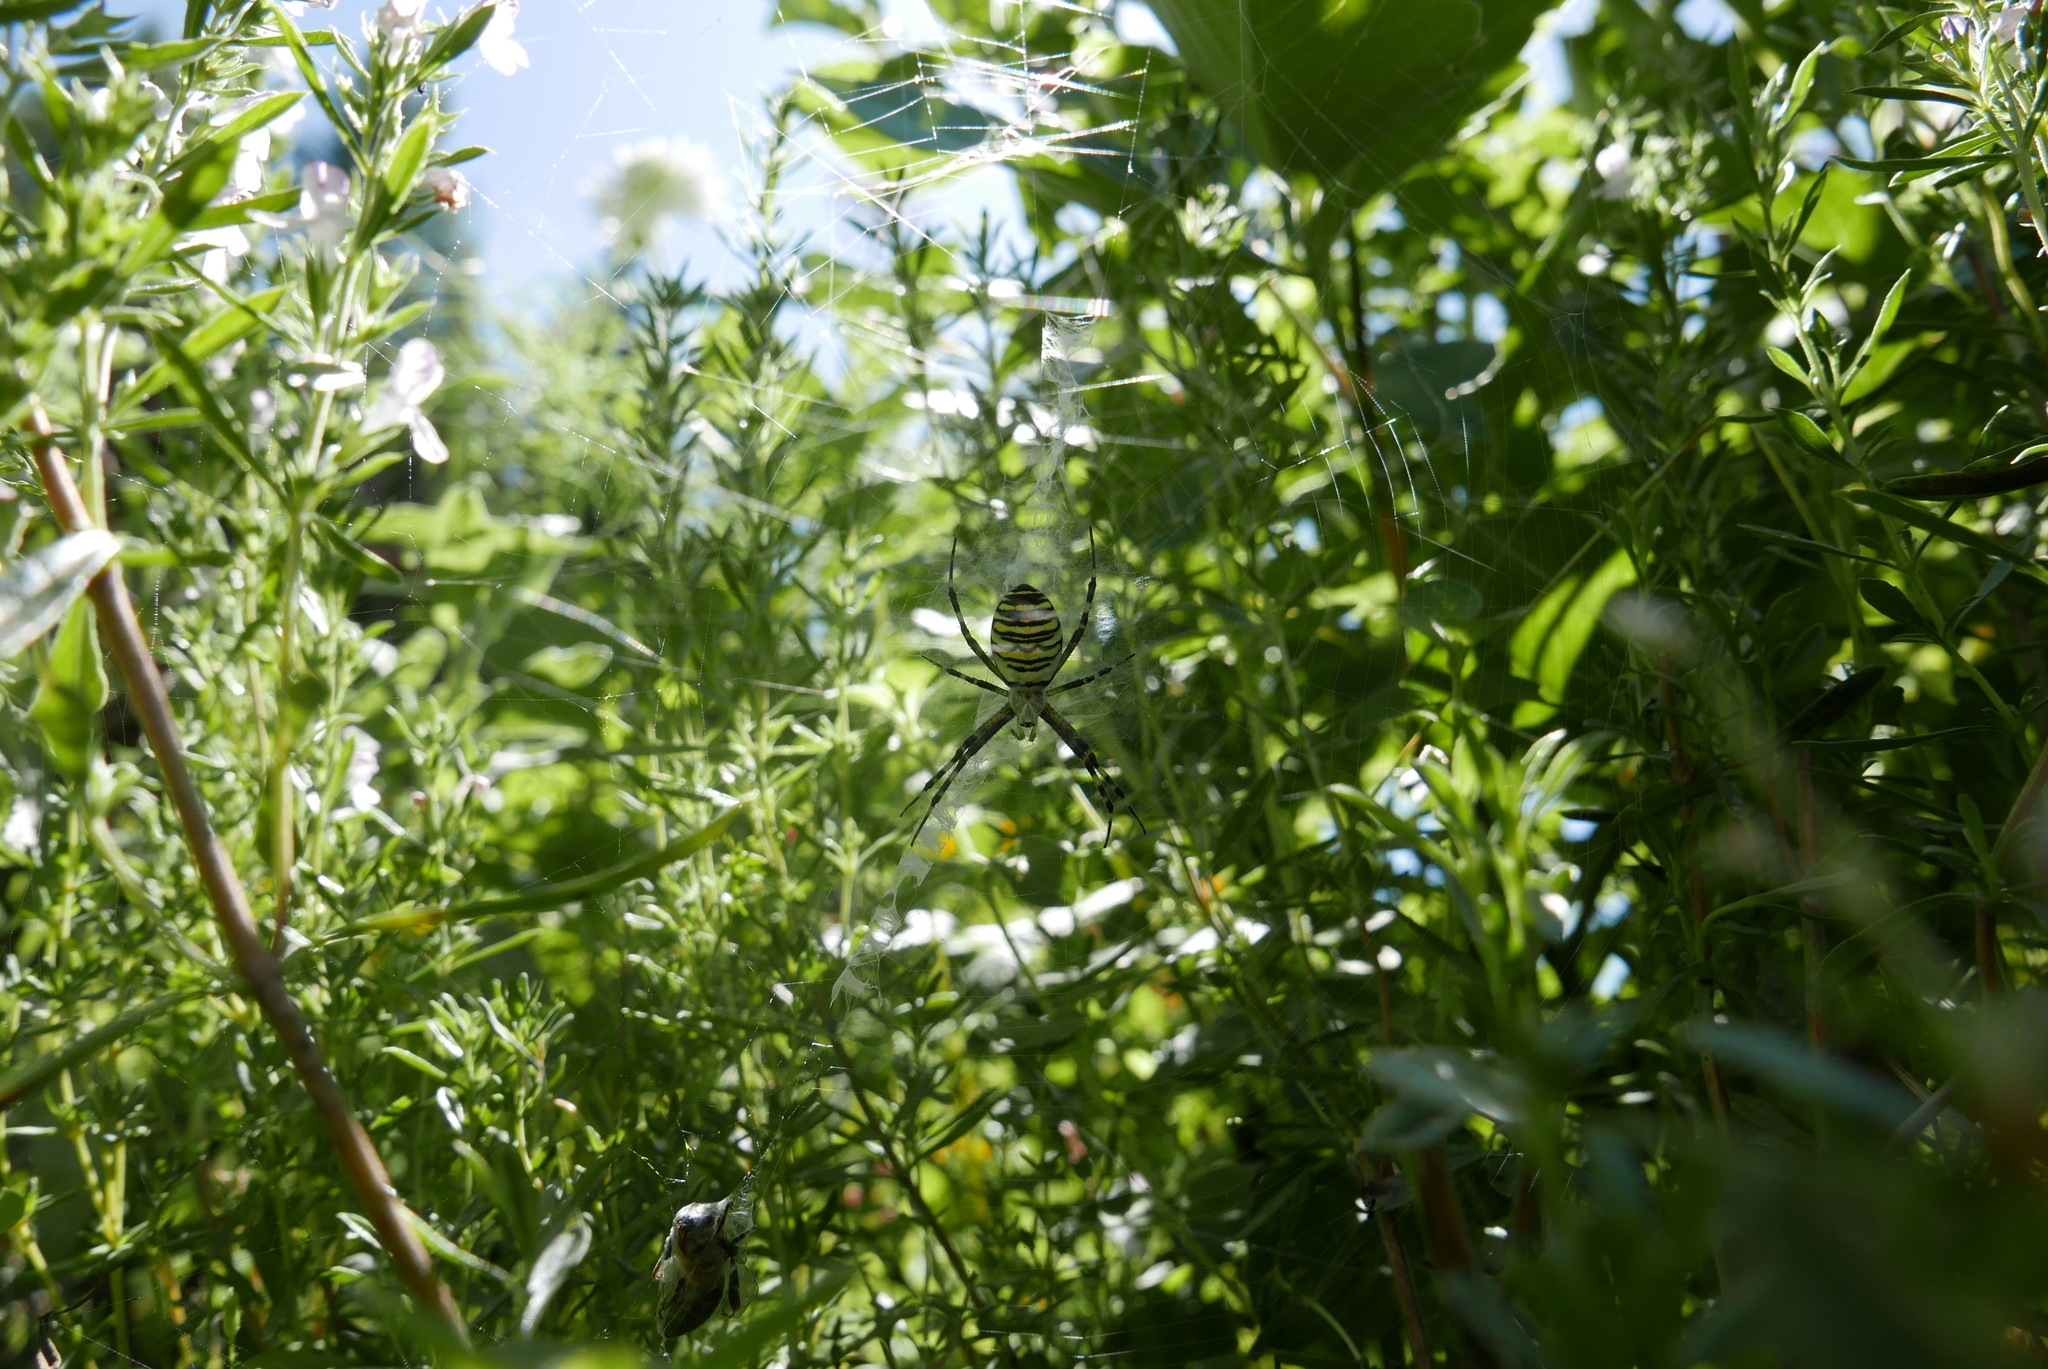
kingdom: Animalia
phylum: Arthropoda
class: Arachnida
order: Araneae
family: Araneidae
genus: Argiope
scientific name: Argiope bruennichi
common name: Wasp spider
